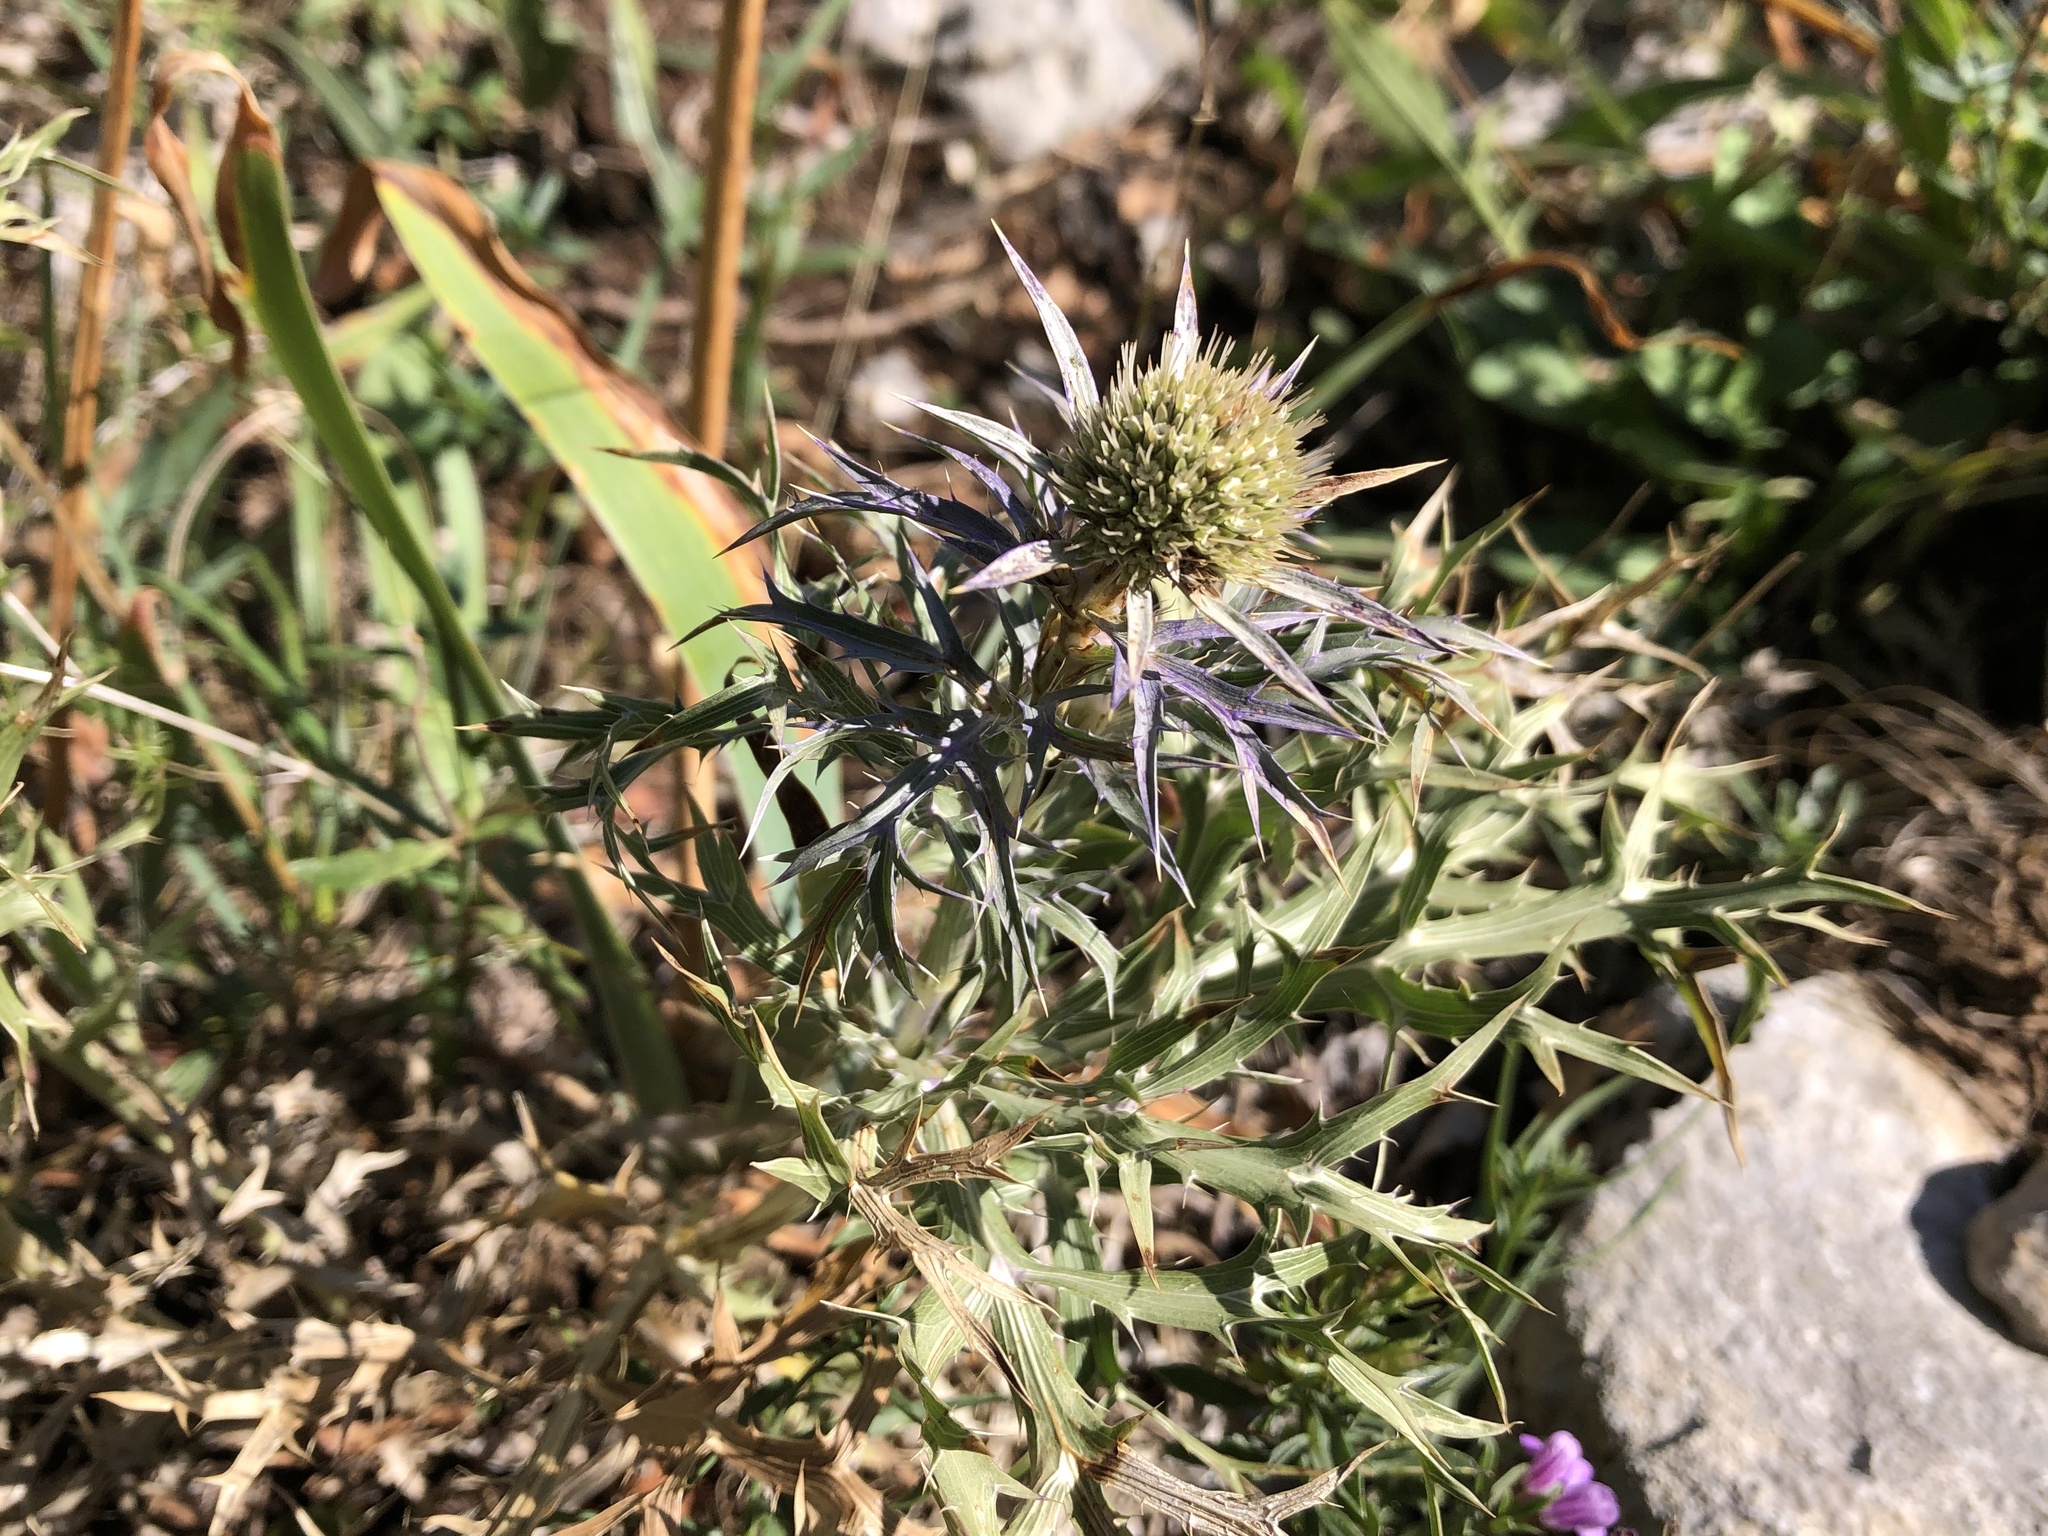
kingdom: Plantae
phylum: Tracheophyta
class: Magnoliopsida
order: Apiales
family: Apiaceae
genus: Eryngium
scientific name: Eryngium amethystinum
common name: Amethyst eryngo
